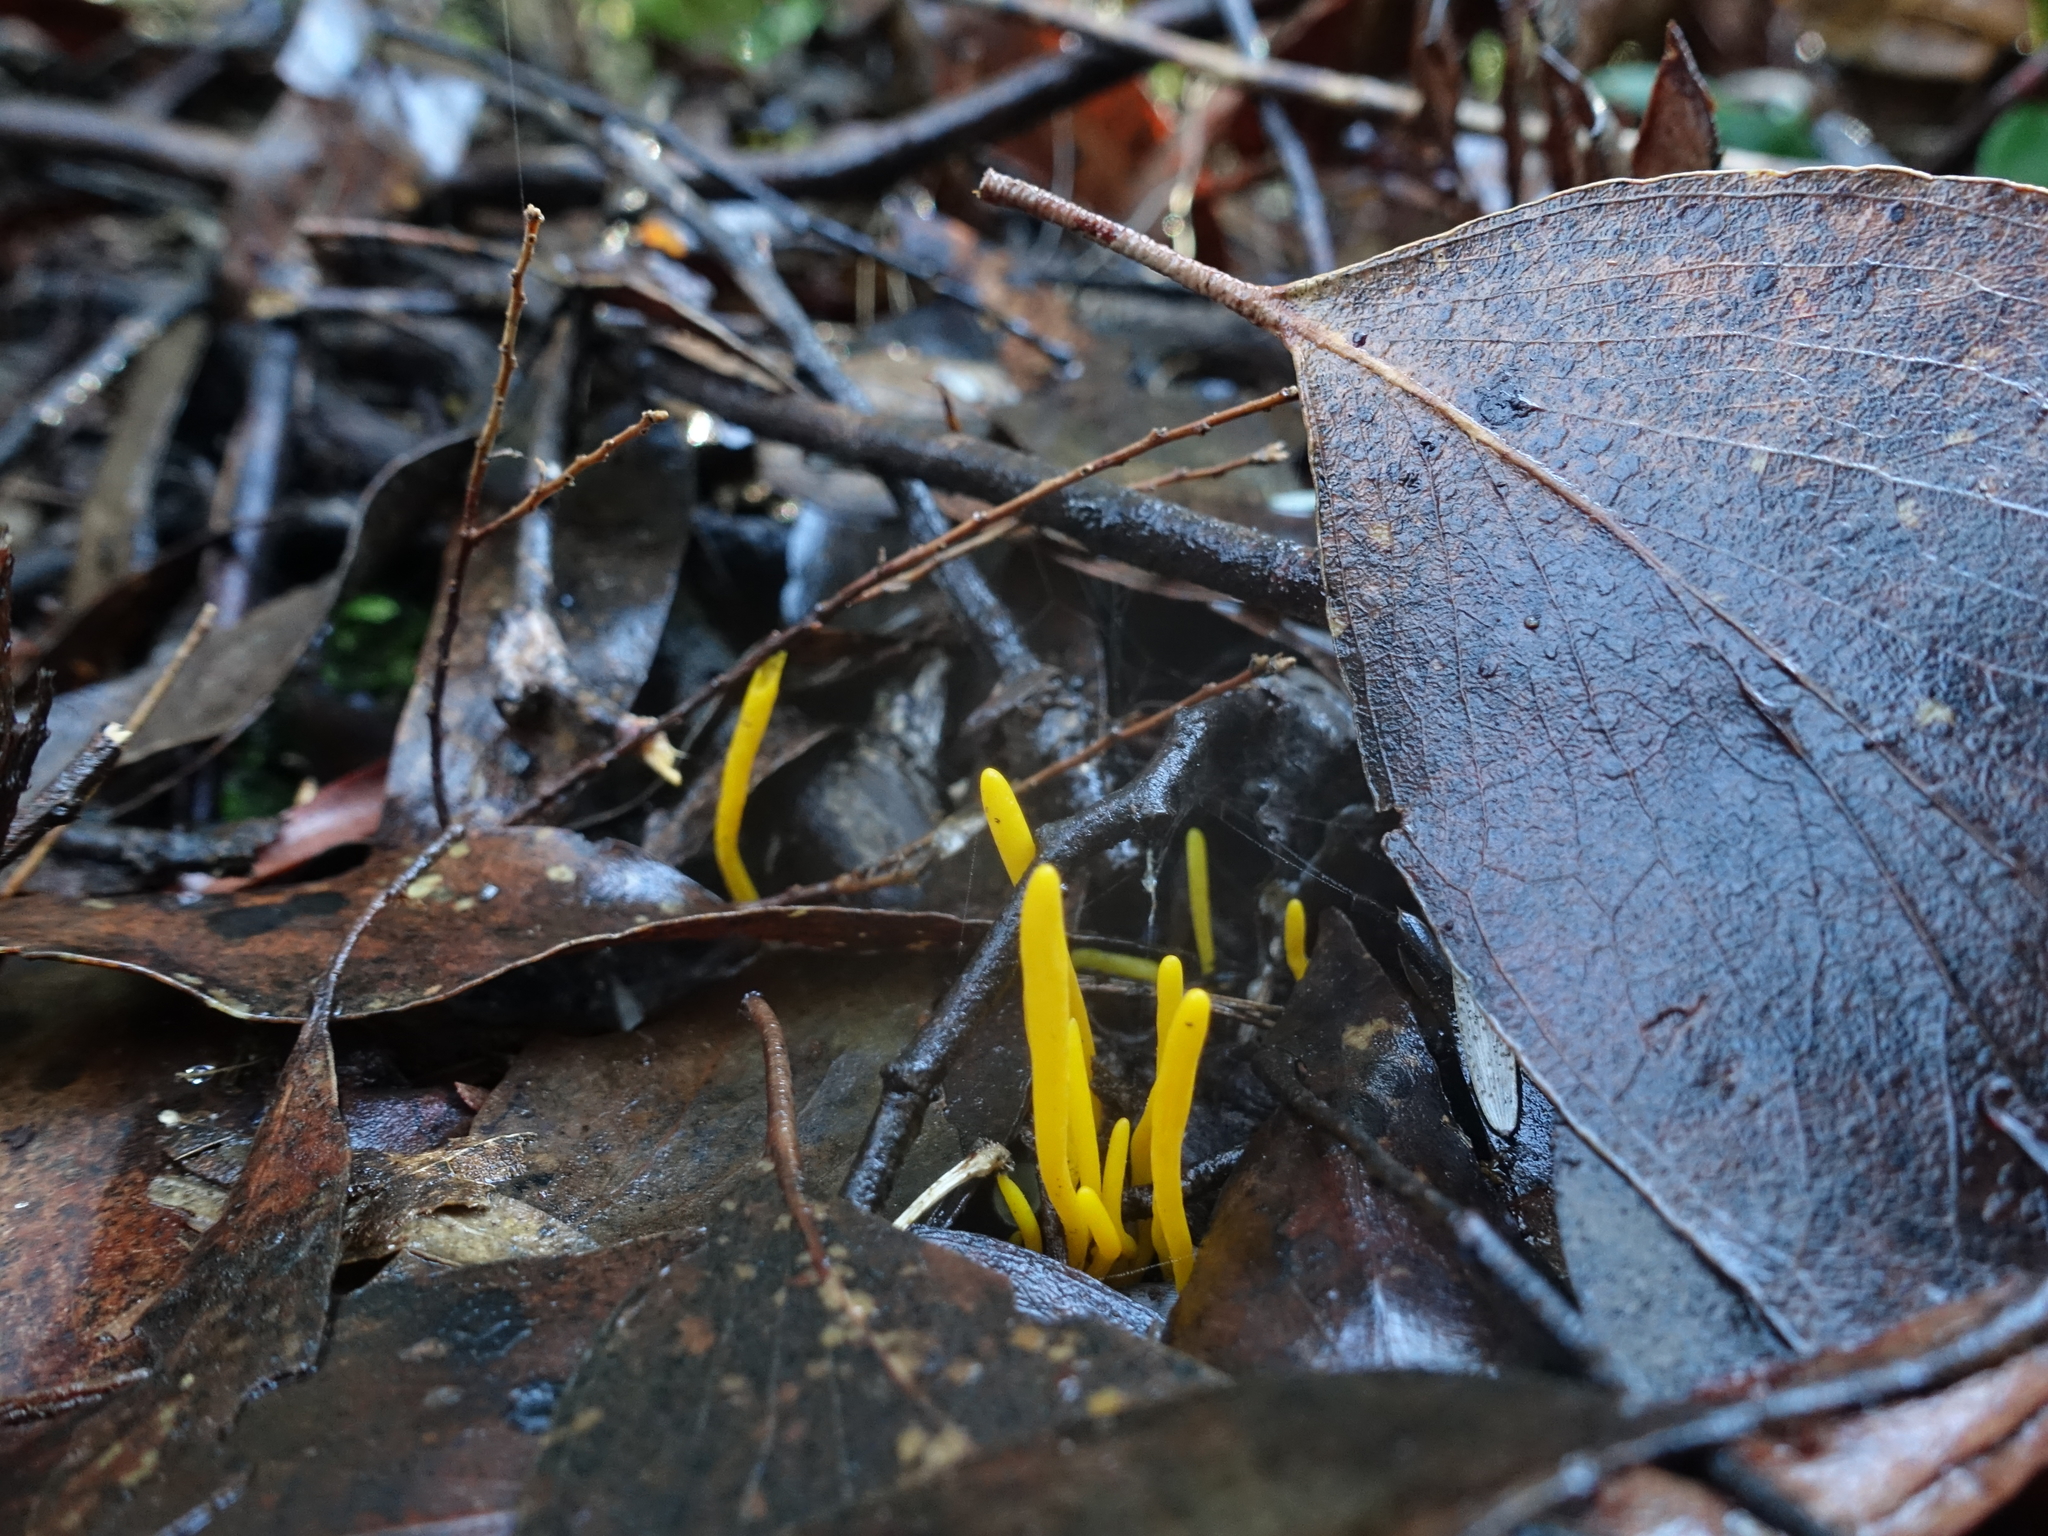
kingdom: Fungi
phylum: Basidiomycota
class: Agaricomycetes
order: Agaricales
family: Clavariaceae
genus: Clavulinopsis
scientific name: Clavulinopsis amoena
